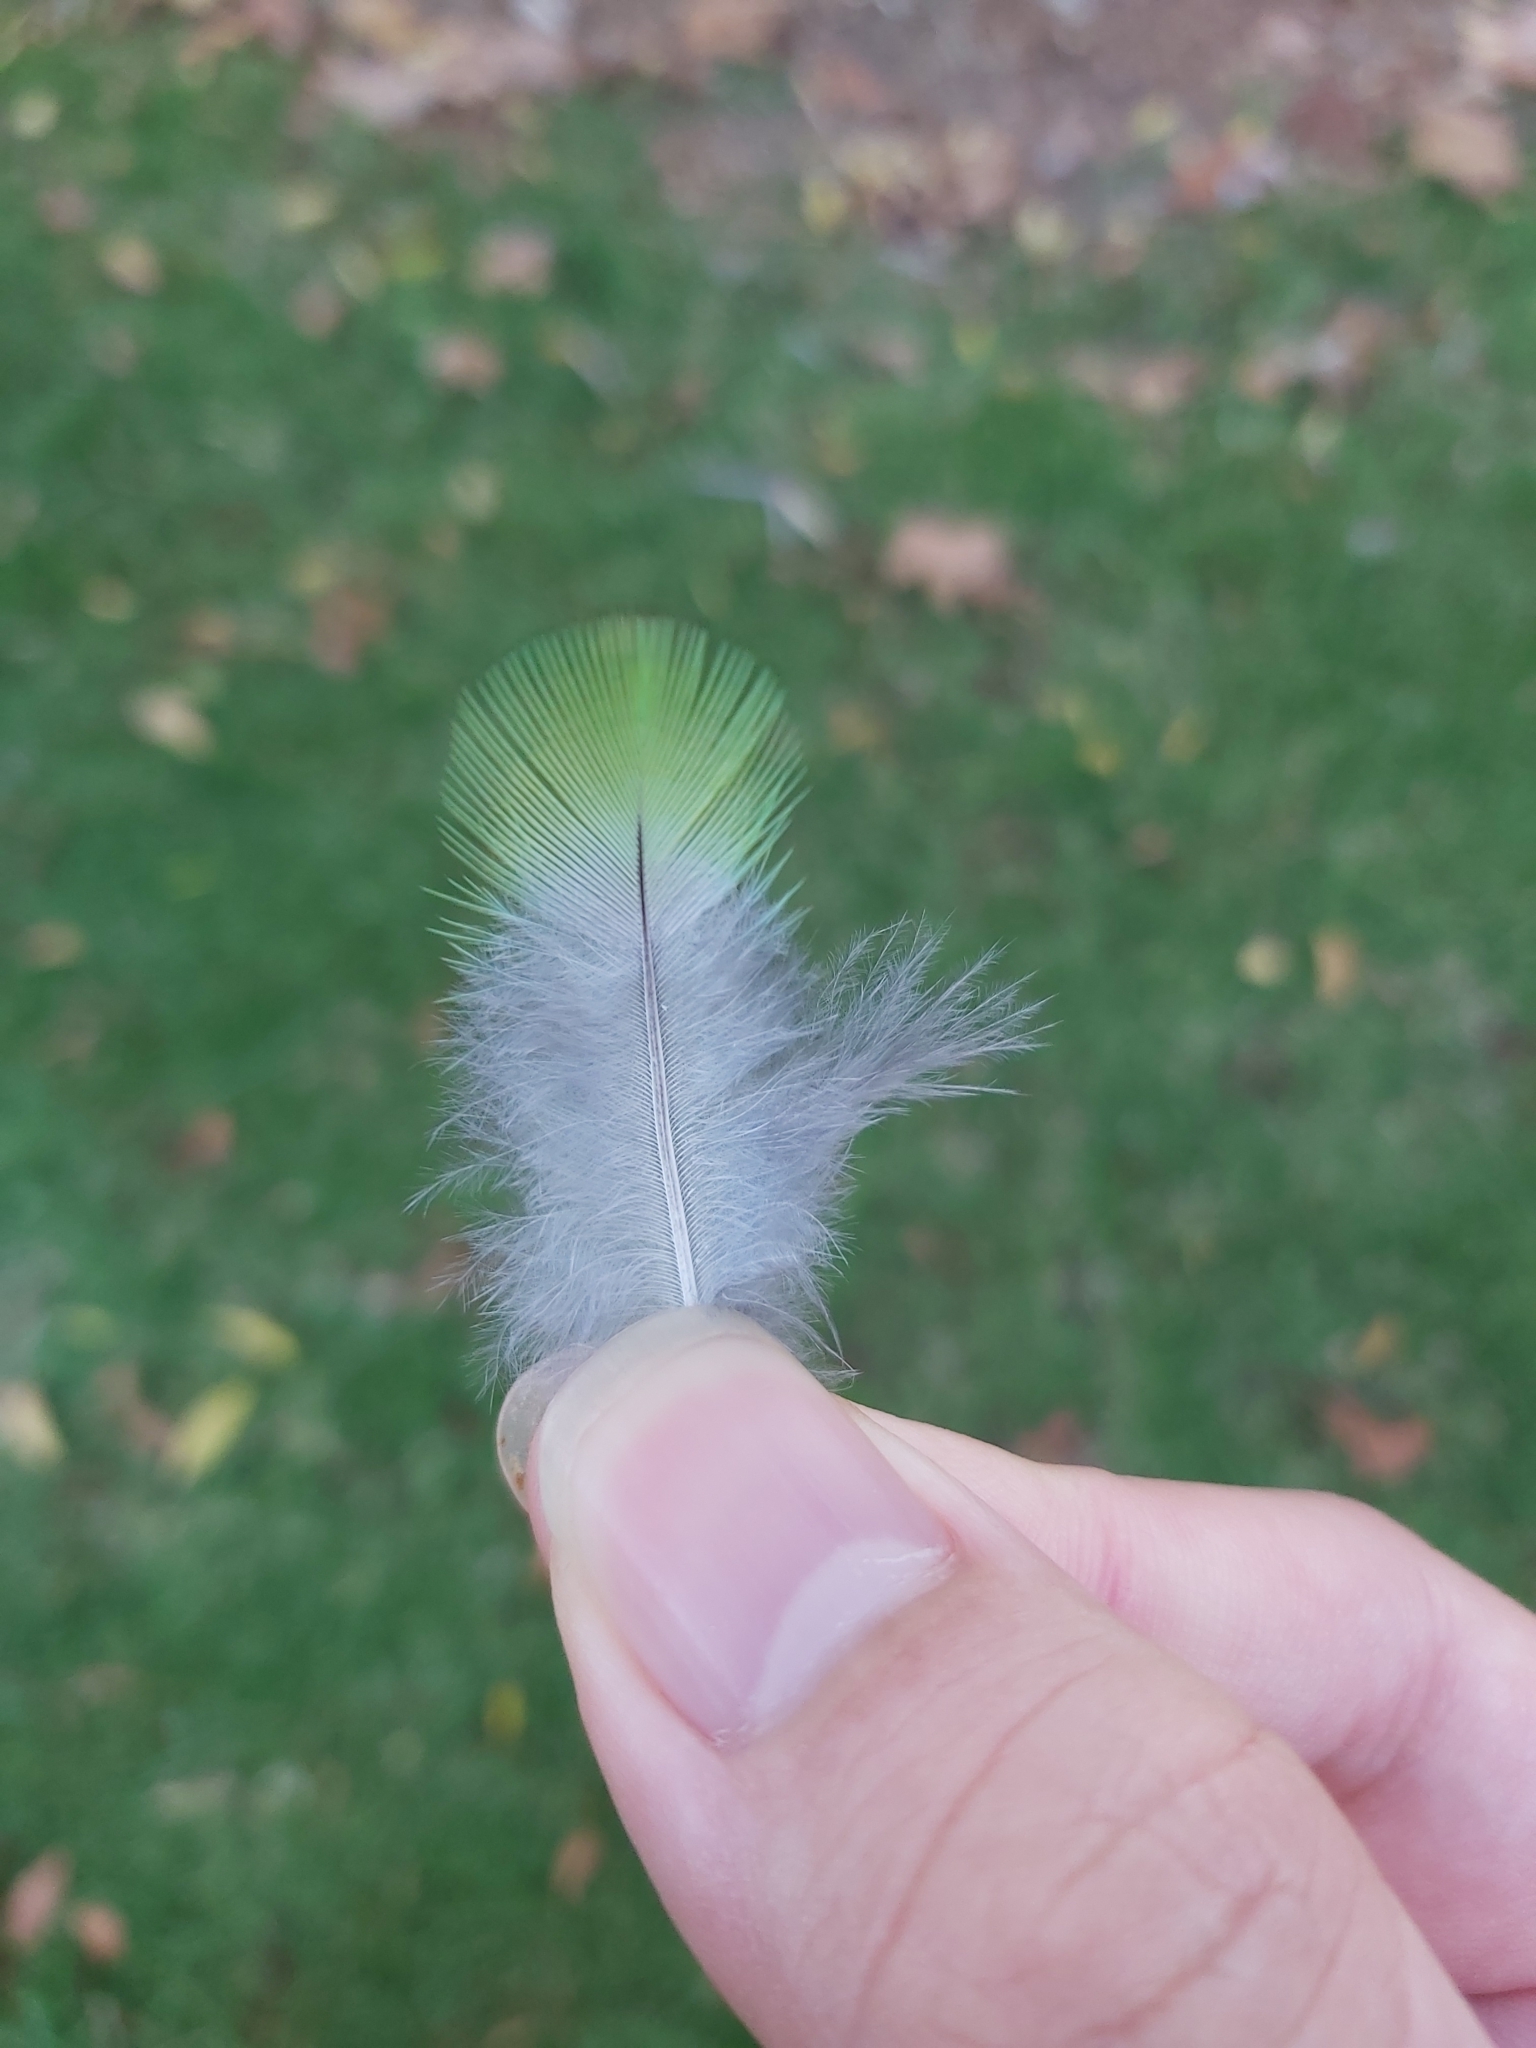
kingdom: Animalia
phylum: Chordata
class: Aves
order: Psittaciformes
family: Psittacidae
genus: Platycercus
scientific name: Platycercus eximius
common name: Eastern rosella
